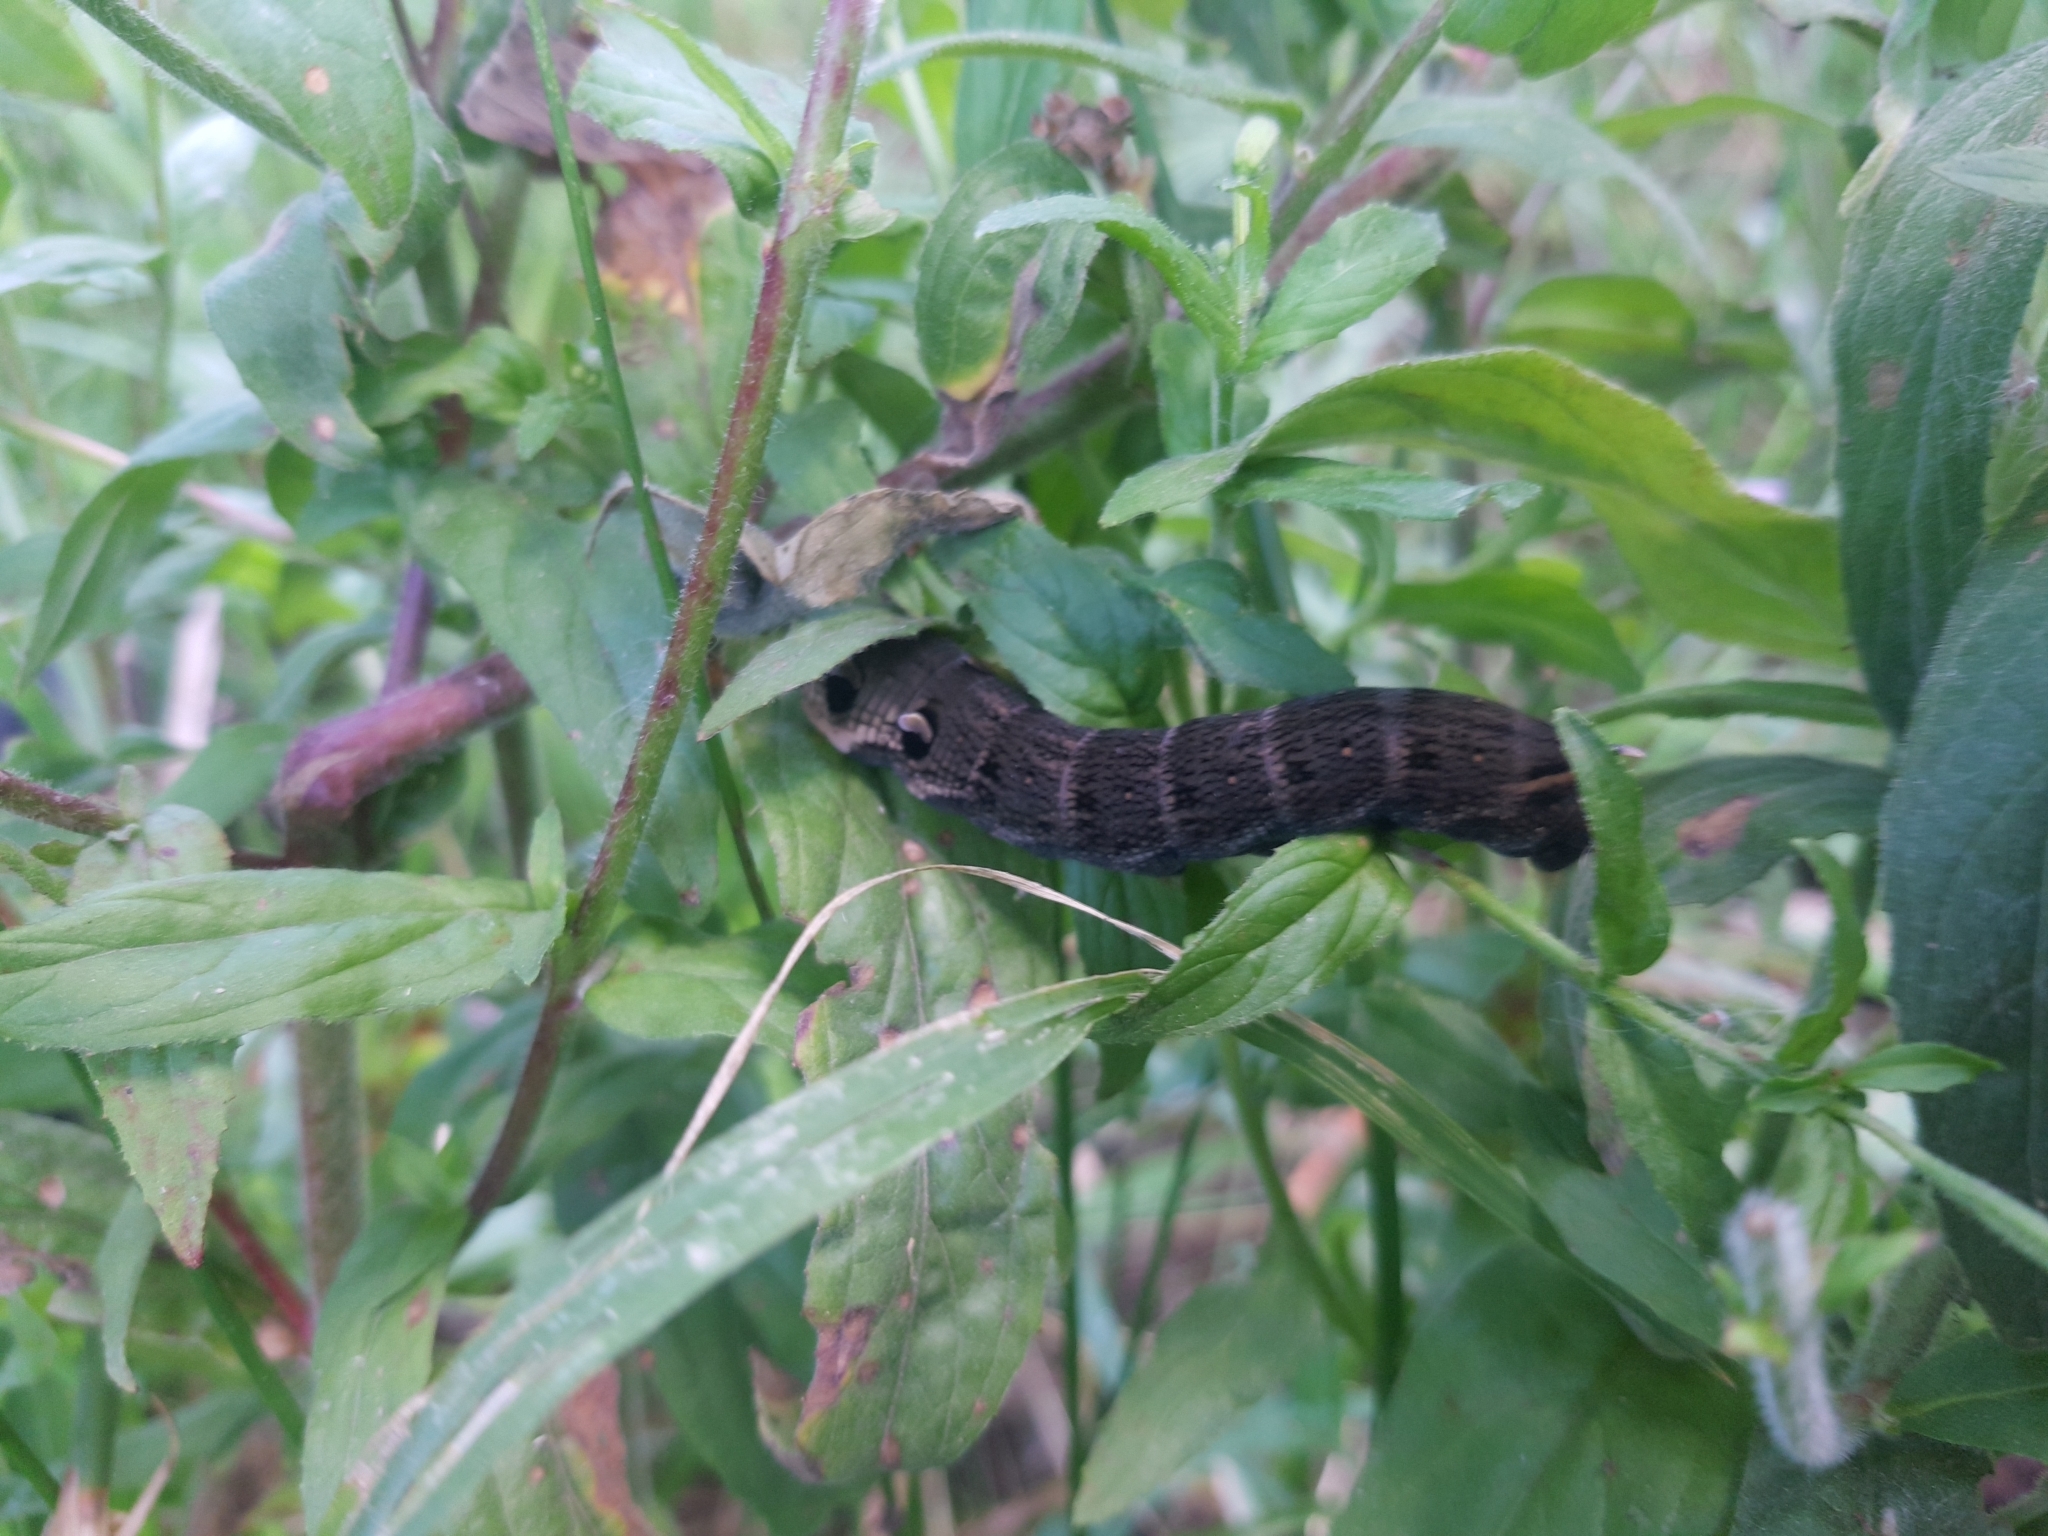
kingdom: Animalia
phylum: Arthropoda
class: Insecta
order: Lepidoptera
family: Sphingidae
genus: Deilephila
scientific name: Deilephila elpenor
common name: Elephant hawk-moth
